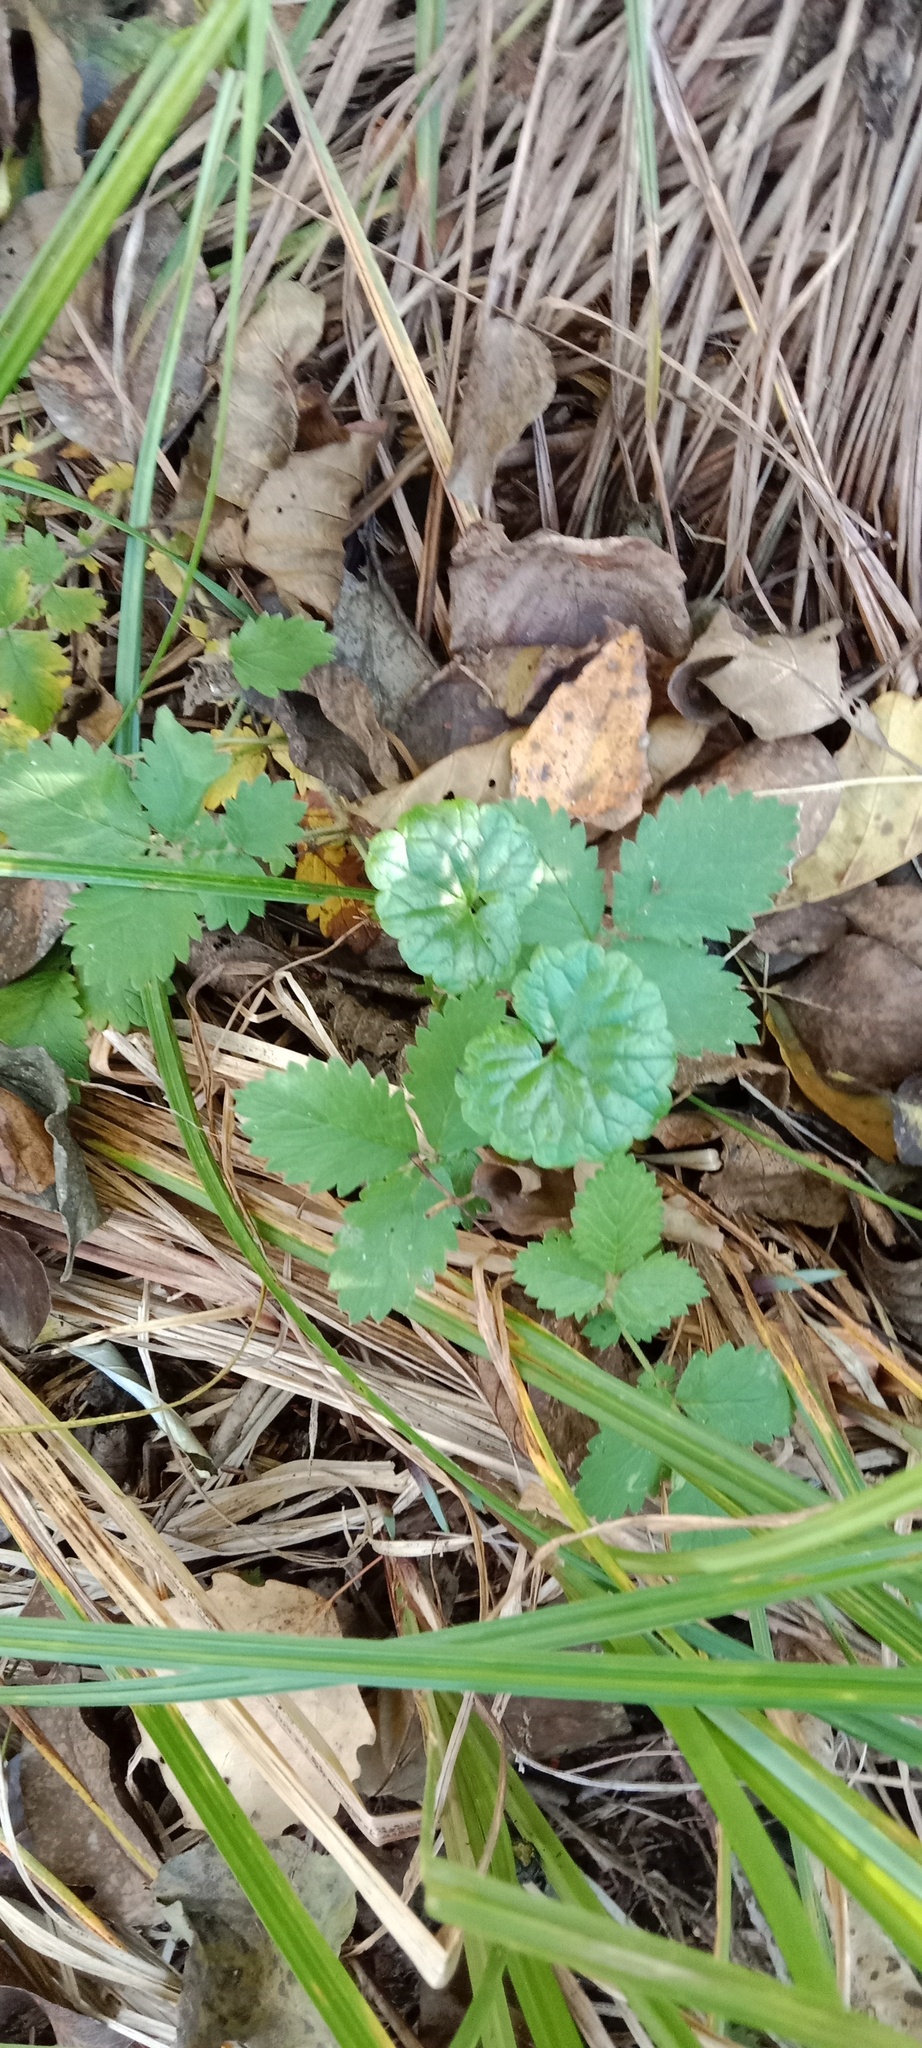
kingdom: Plantae
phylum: Tracheophyta
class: Magnoliopsida
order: Lamiales
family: Lamiaceae
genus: Glechoma
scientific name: Glechoma hederacea
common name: Ground ivy
